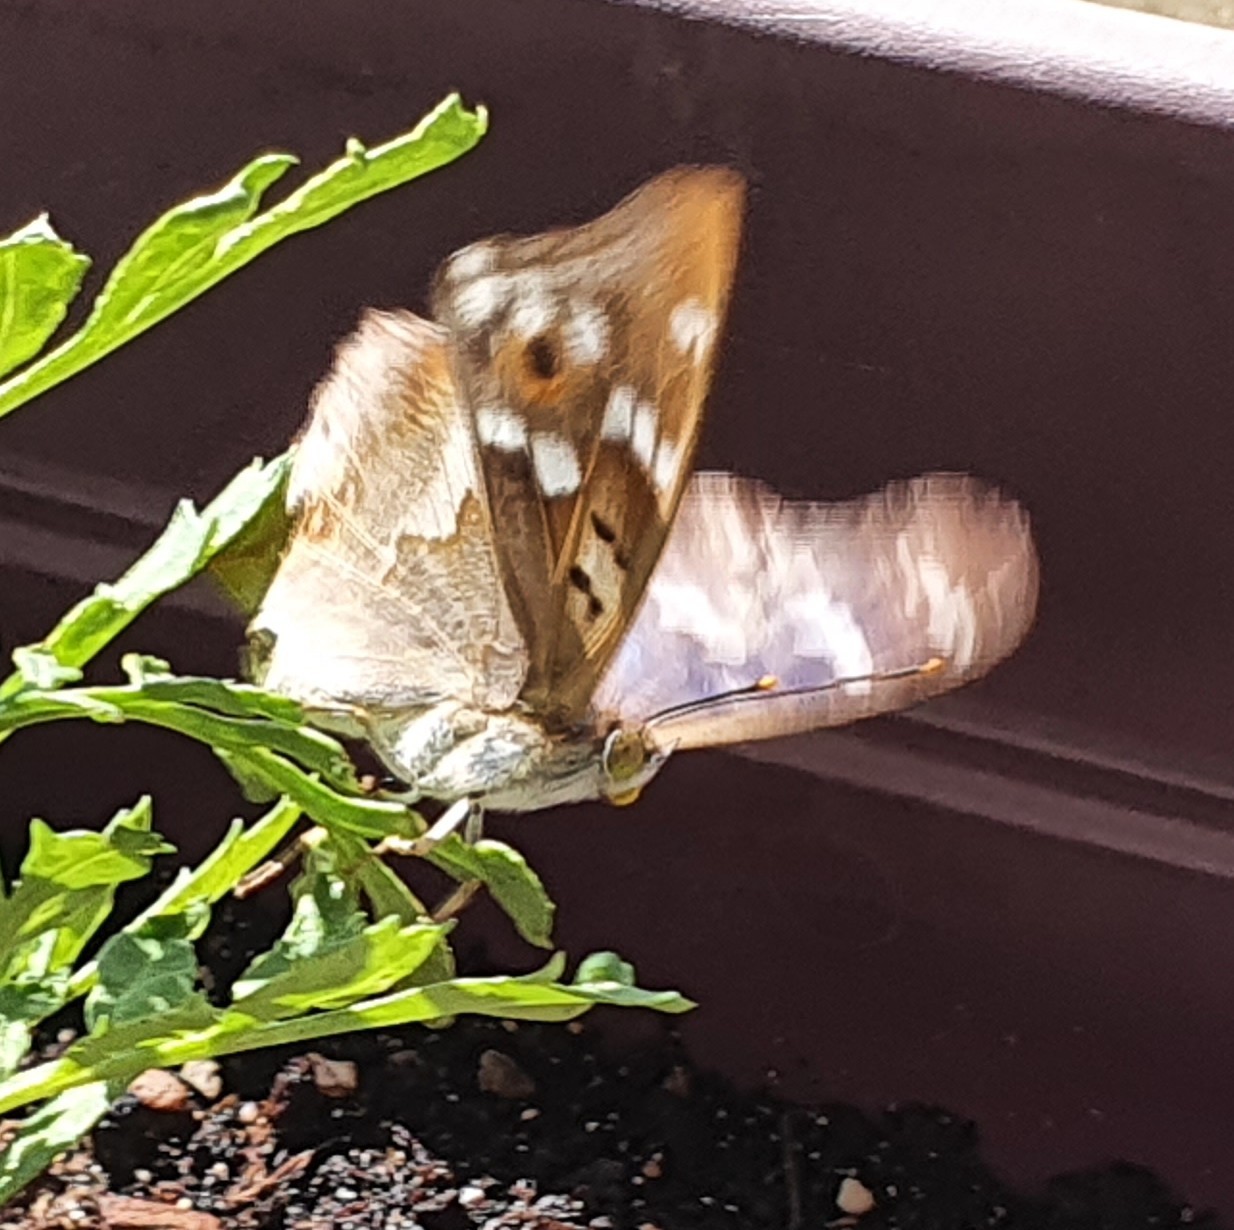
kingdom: Animalia
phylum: Arthropoda
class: Insecta
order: Lepidoptera
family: Nymphalidae
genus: Apatura
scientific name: Apatura ilia
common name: Lesser purple emperor
